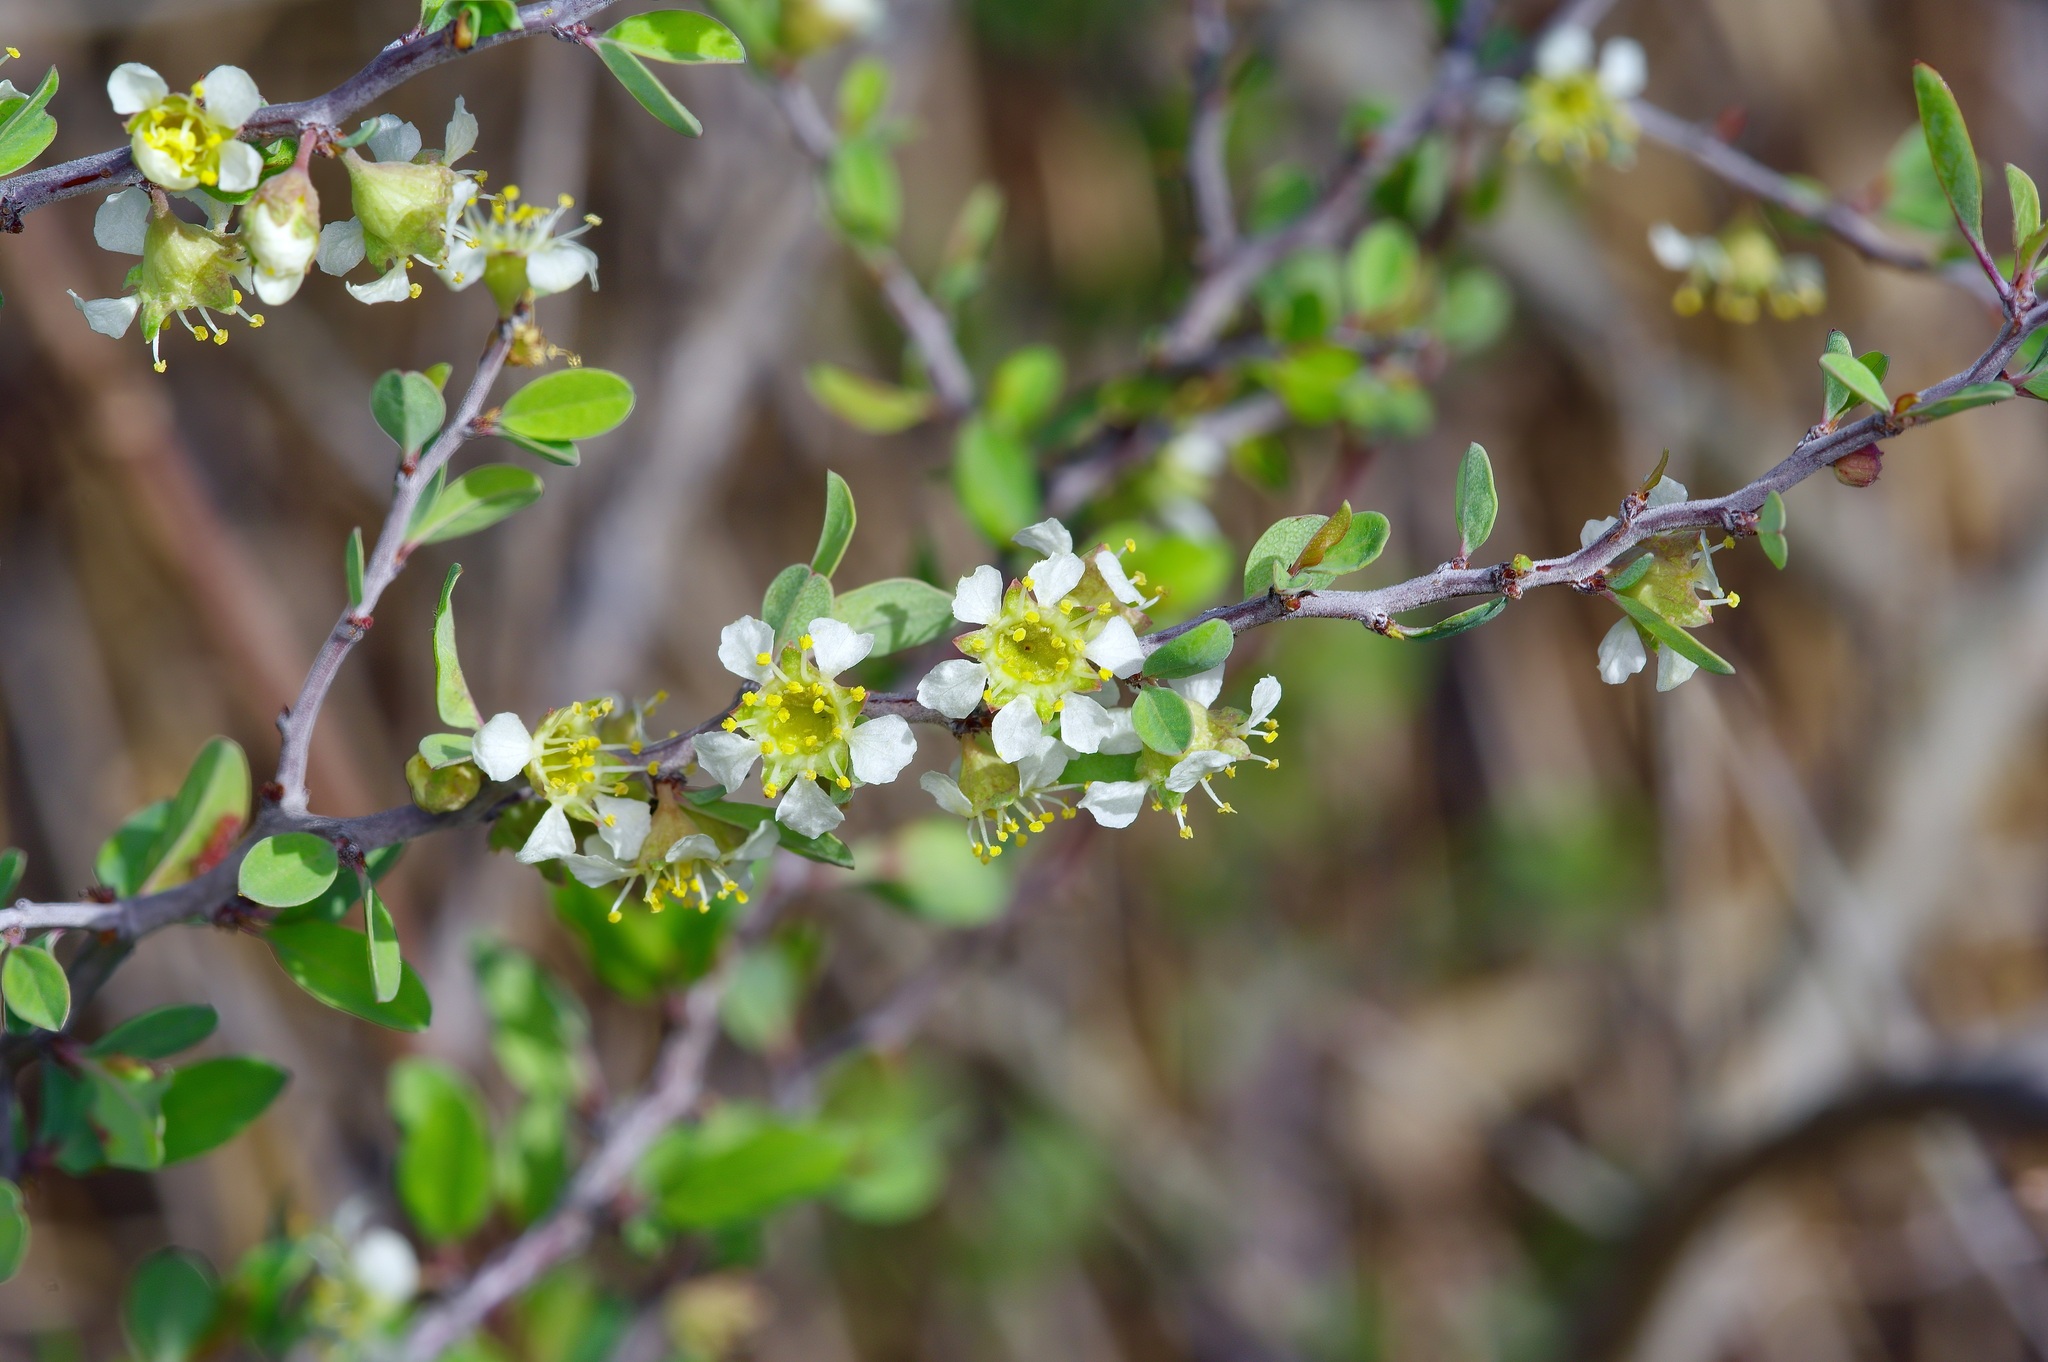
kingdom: Plantae
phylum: Tracheophyta
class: Magnoliopsida
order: Rosales
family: Rosaceae
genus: Prunus
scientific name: Prunus minutiflora
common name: Texas almond
